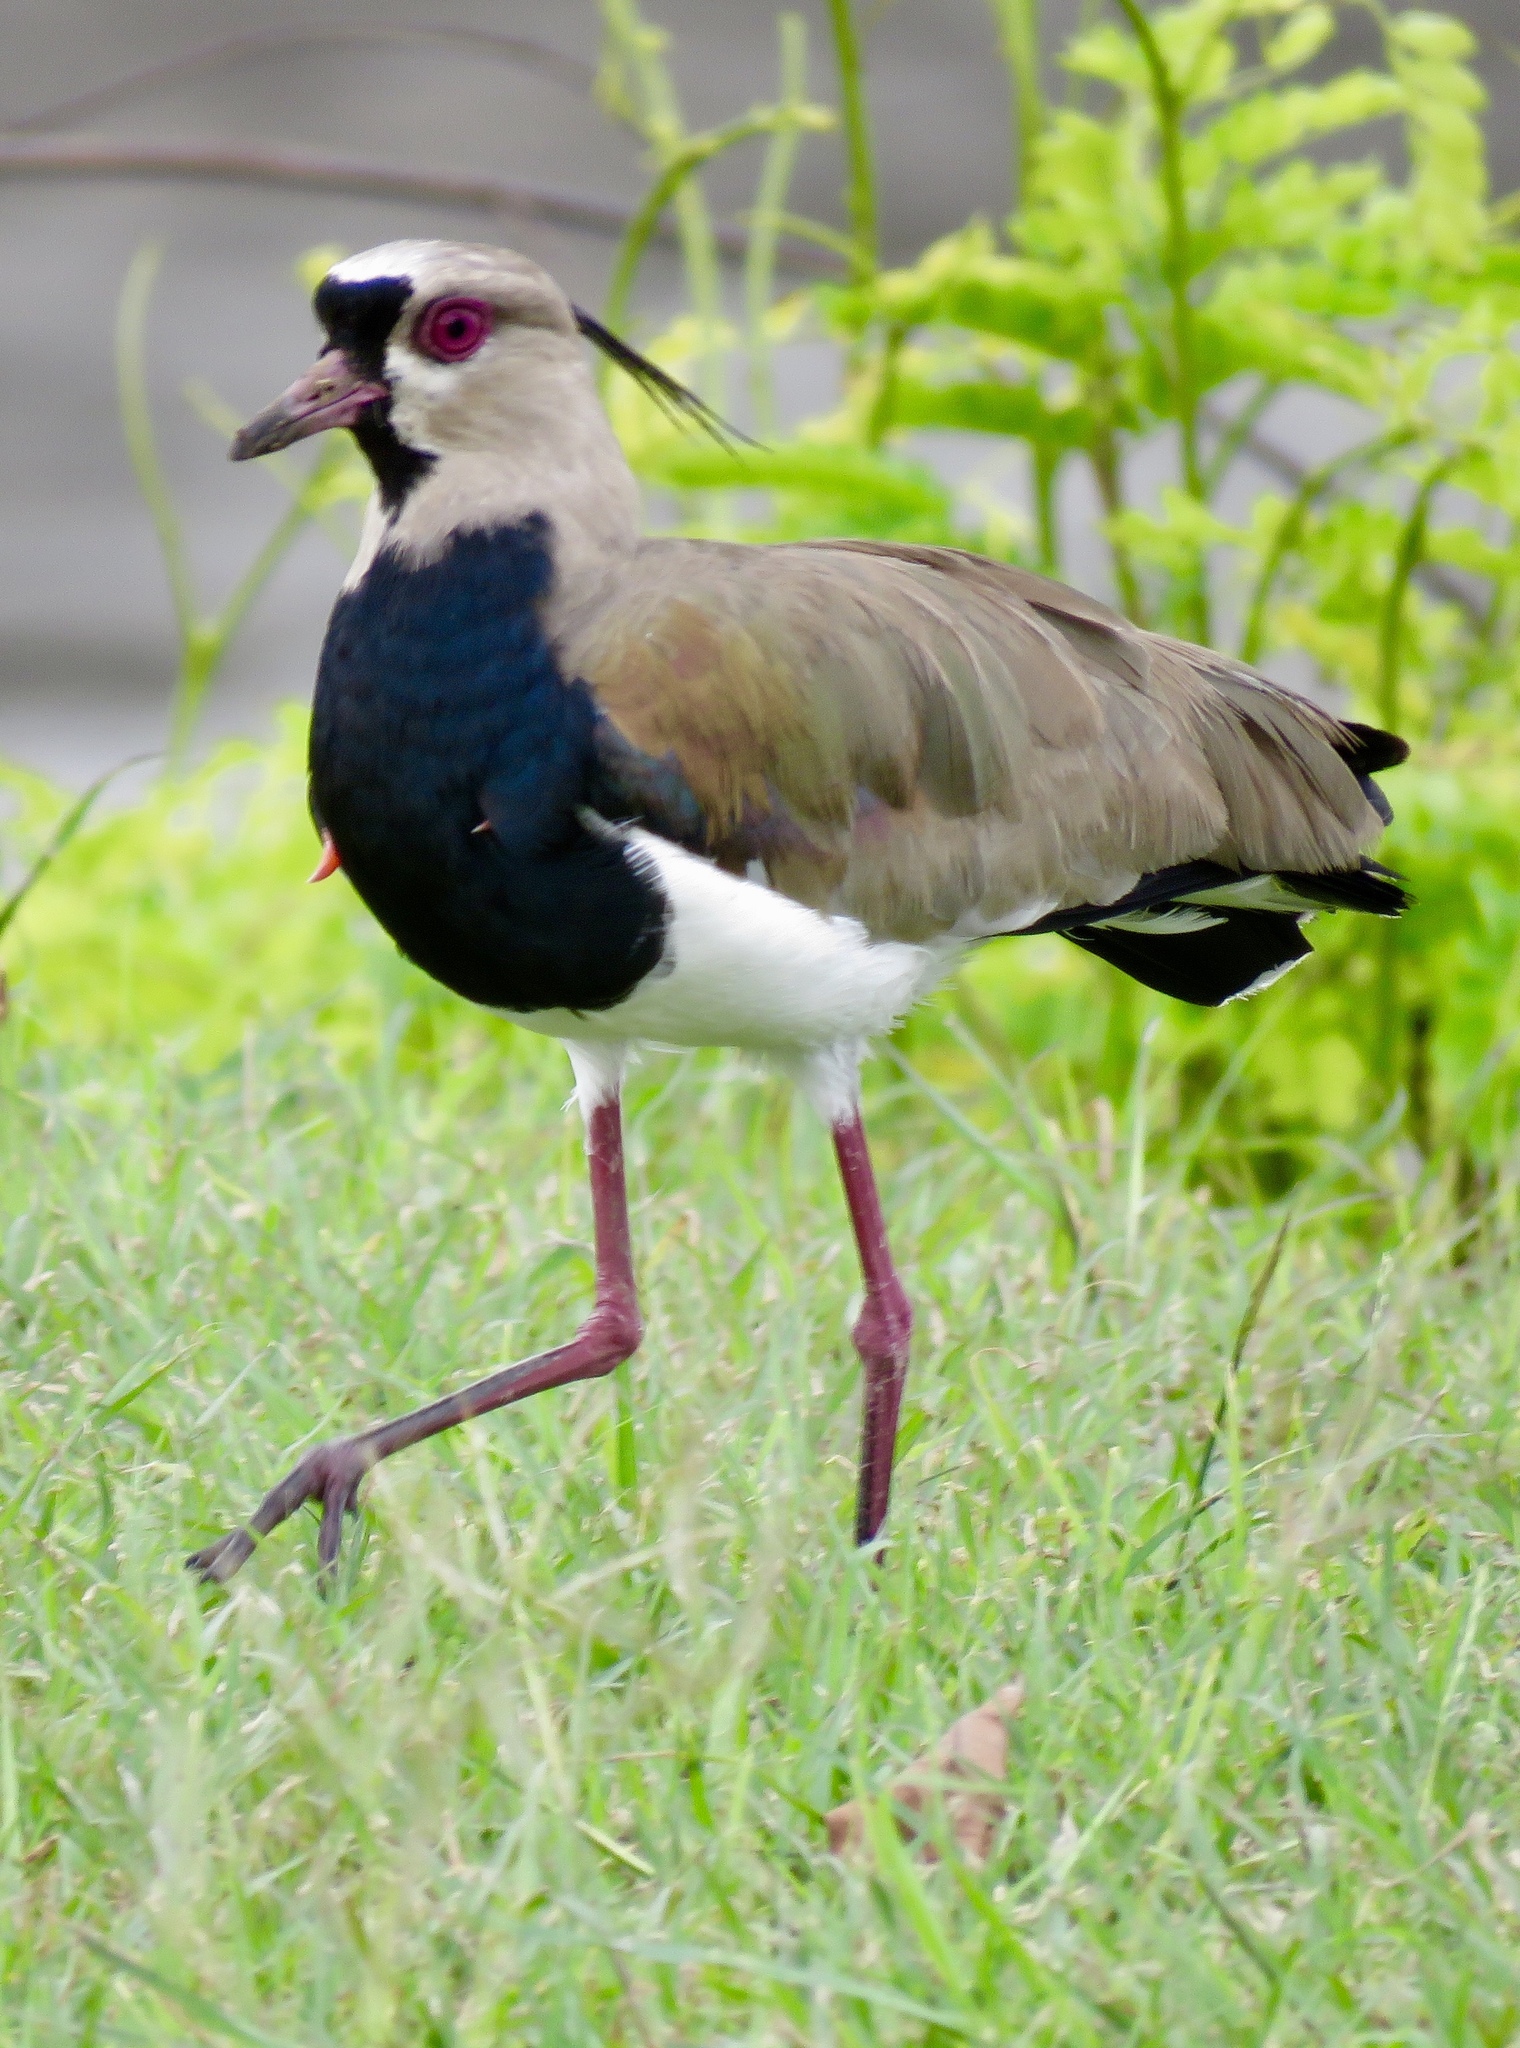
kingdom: Animalia
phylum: Chordata
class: Aves
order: Charadriiformes
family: Charadriidae
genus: Vanellus
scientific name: Vanellus chilensis
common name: Southern lapwing
